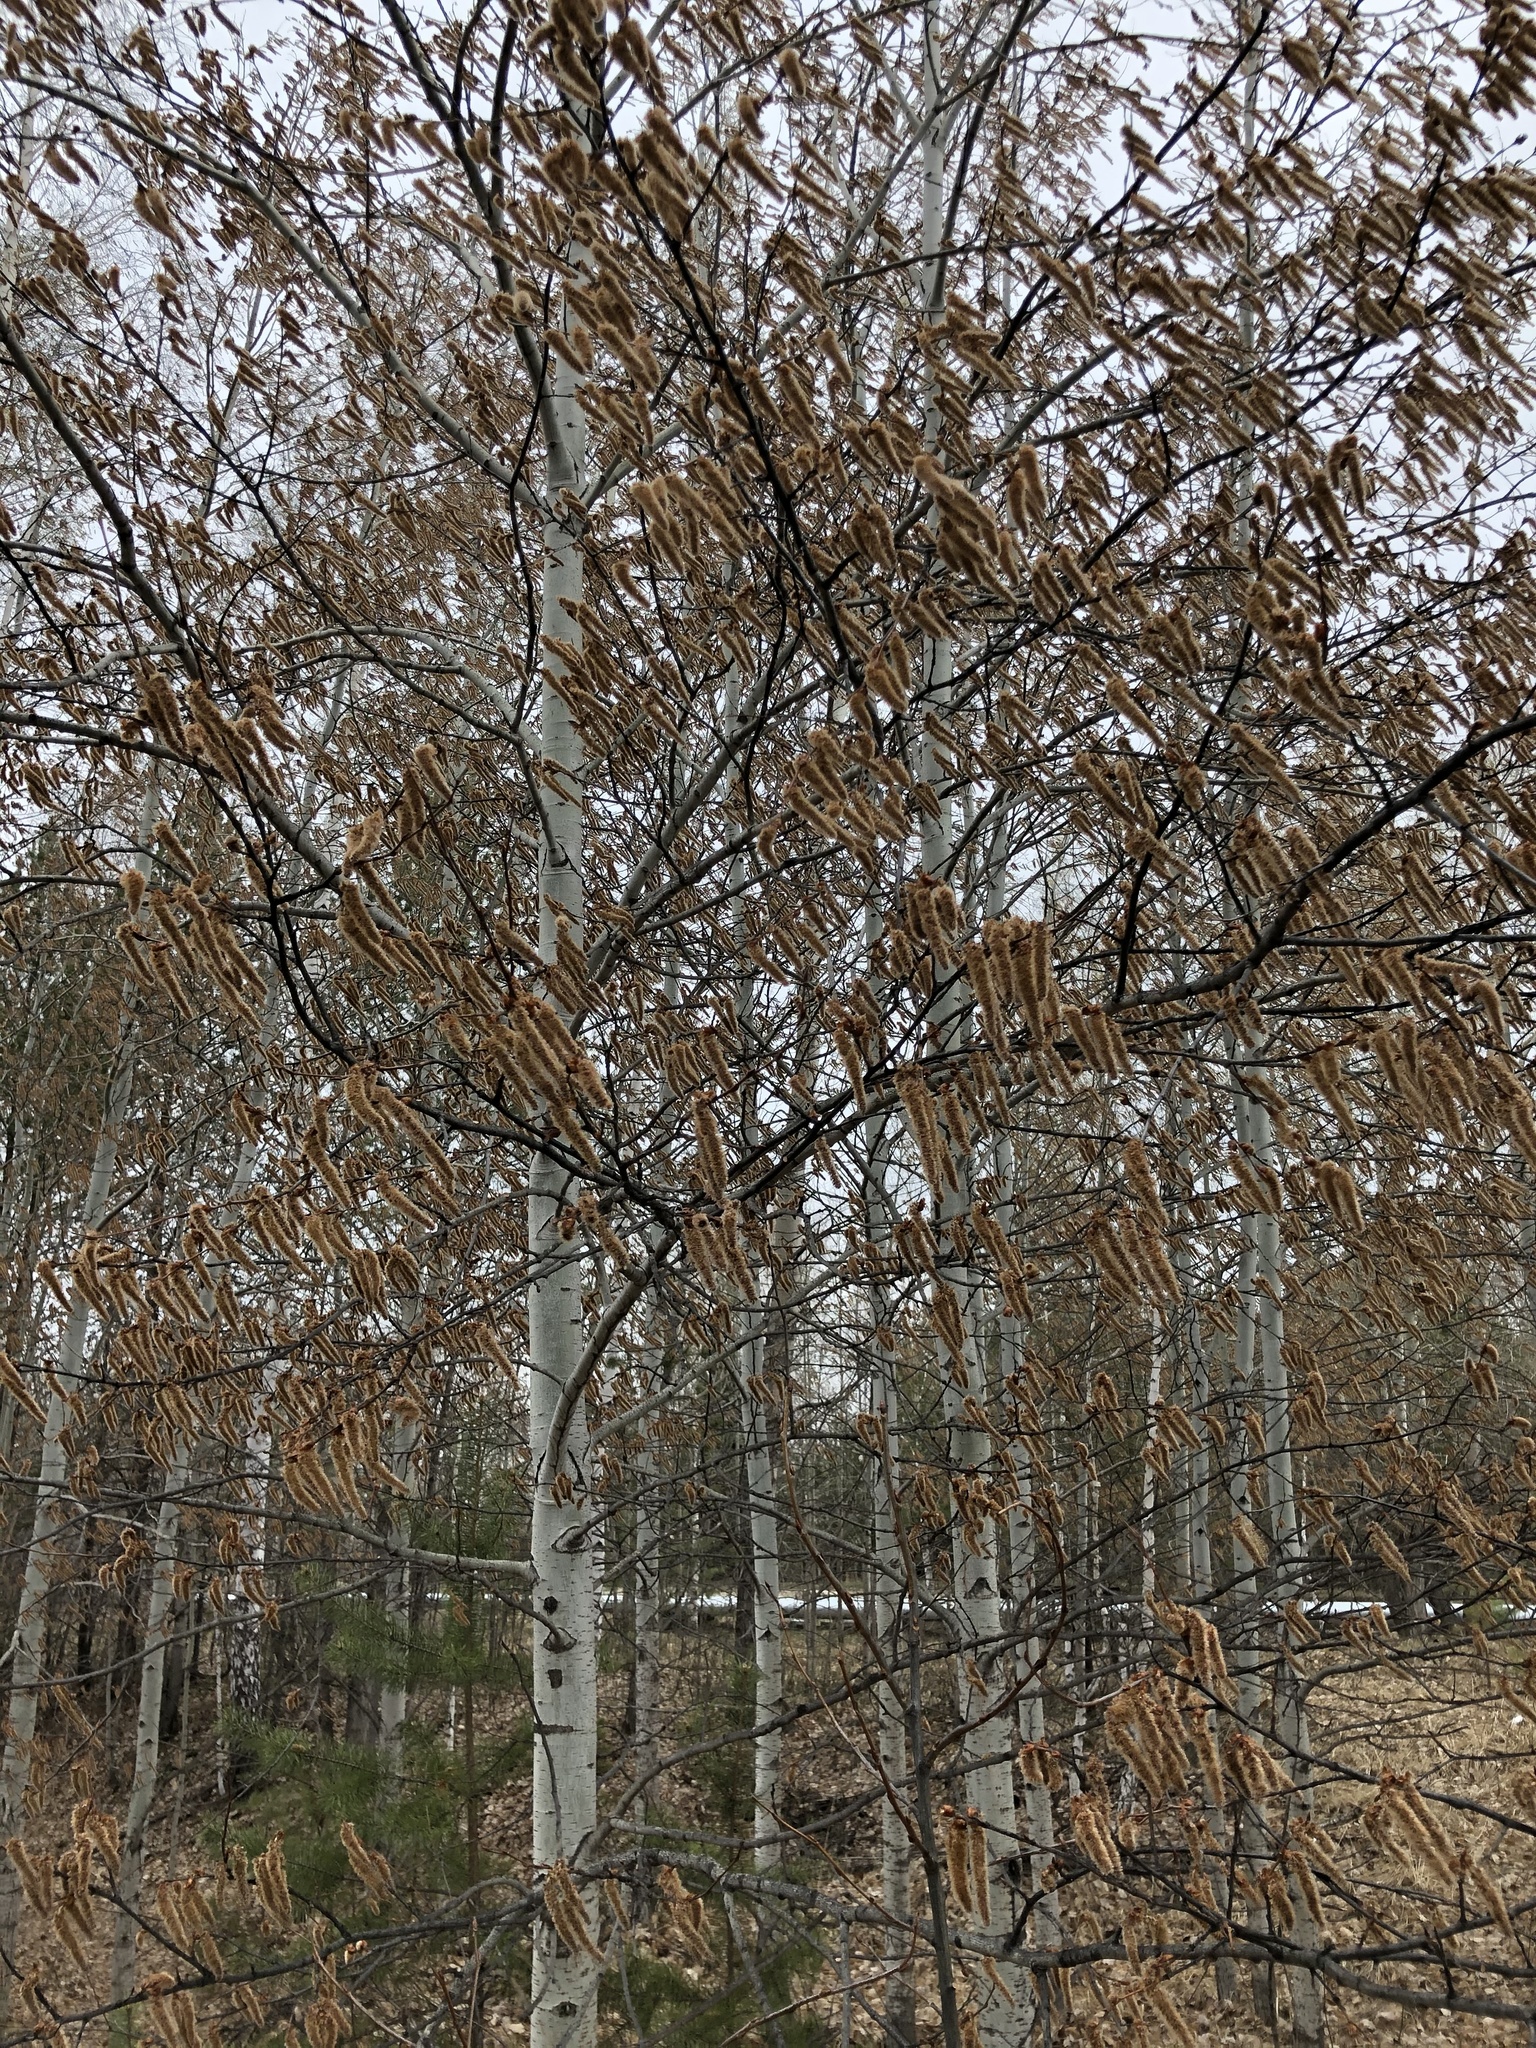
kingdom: Plantae
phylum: Tracheophyta
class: Magnoliopsida
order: Malpighiales
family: Salicaceae
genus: Populus
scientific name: Populus tremula
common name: European aspen
